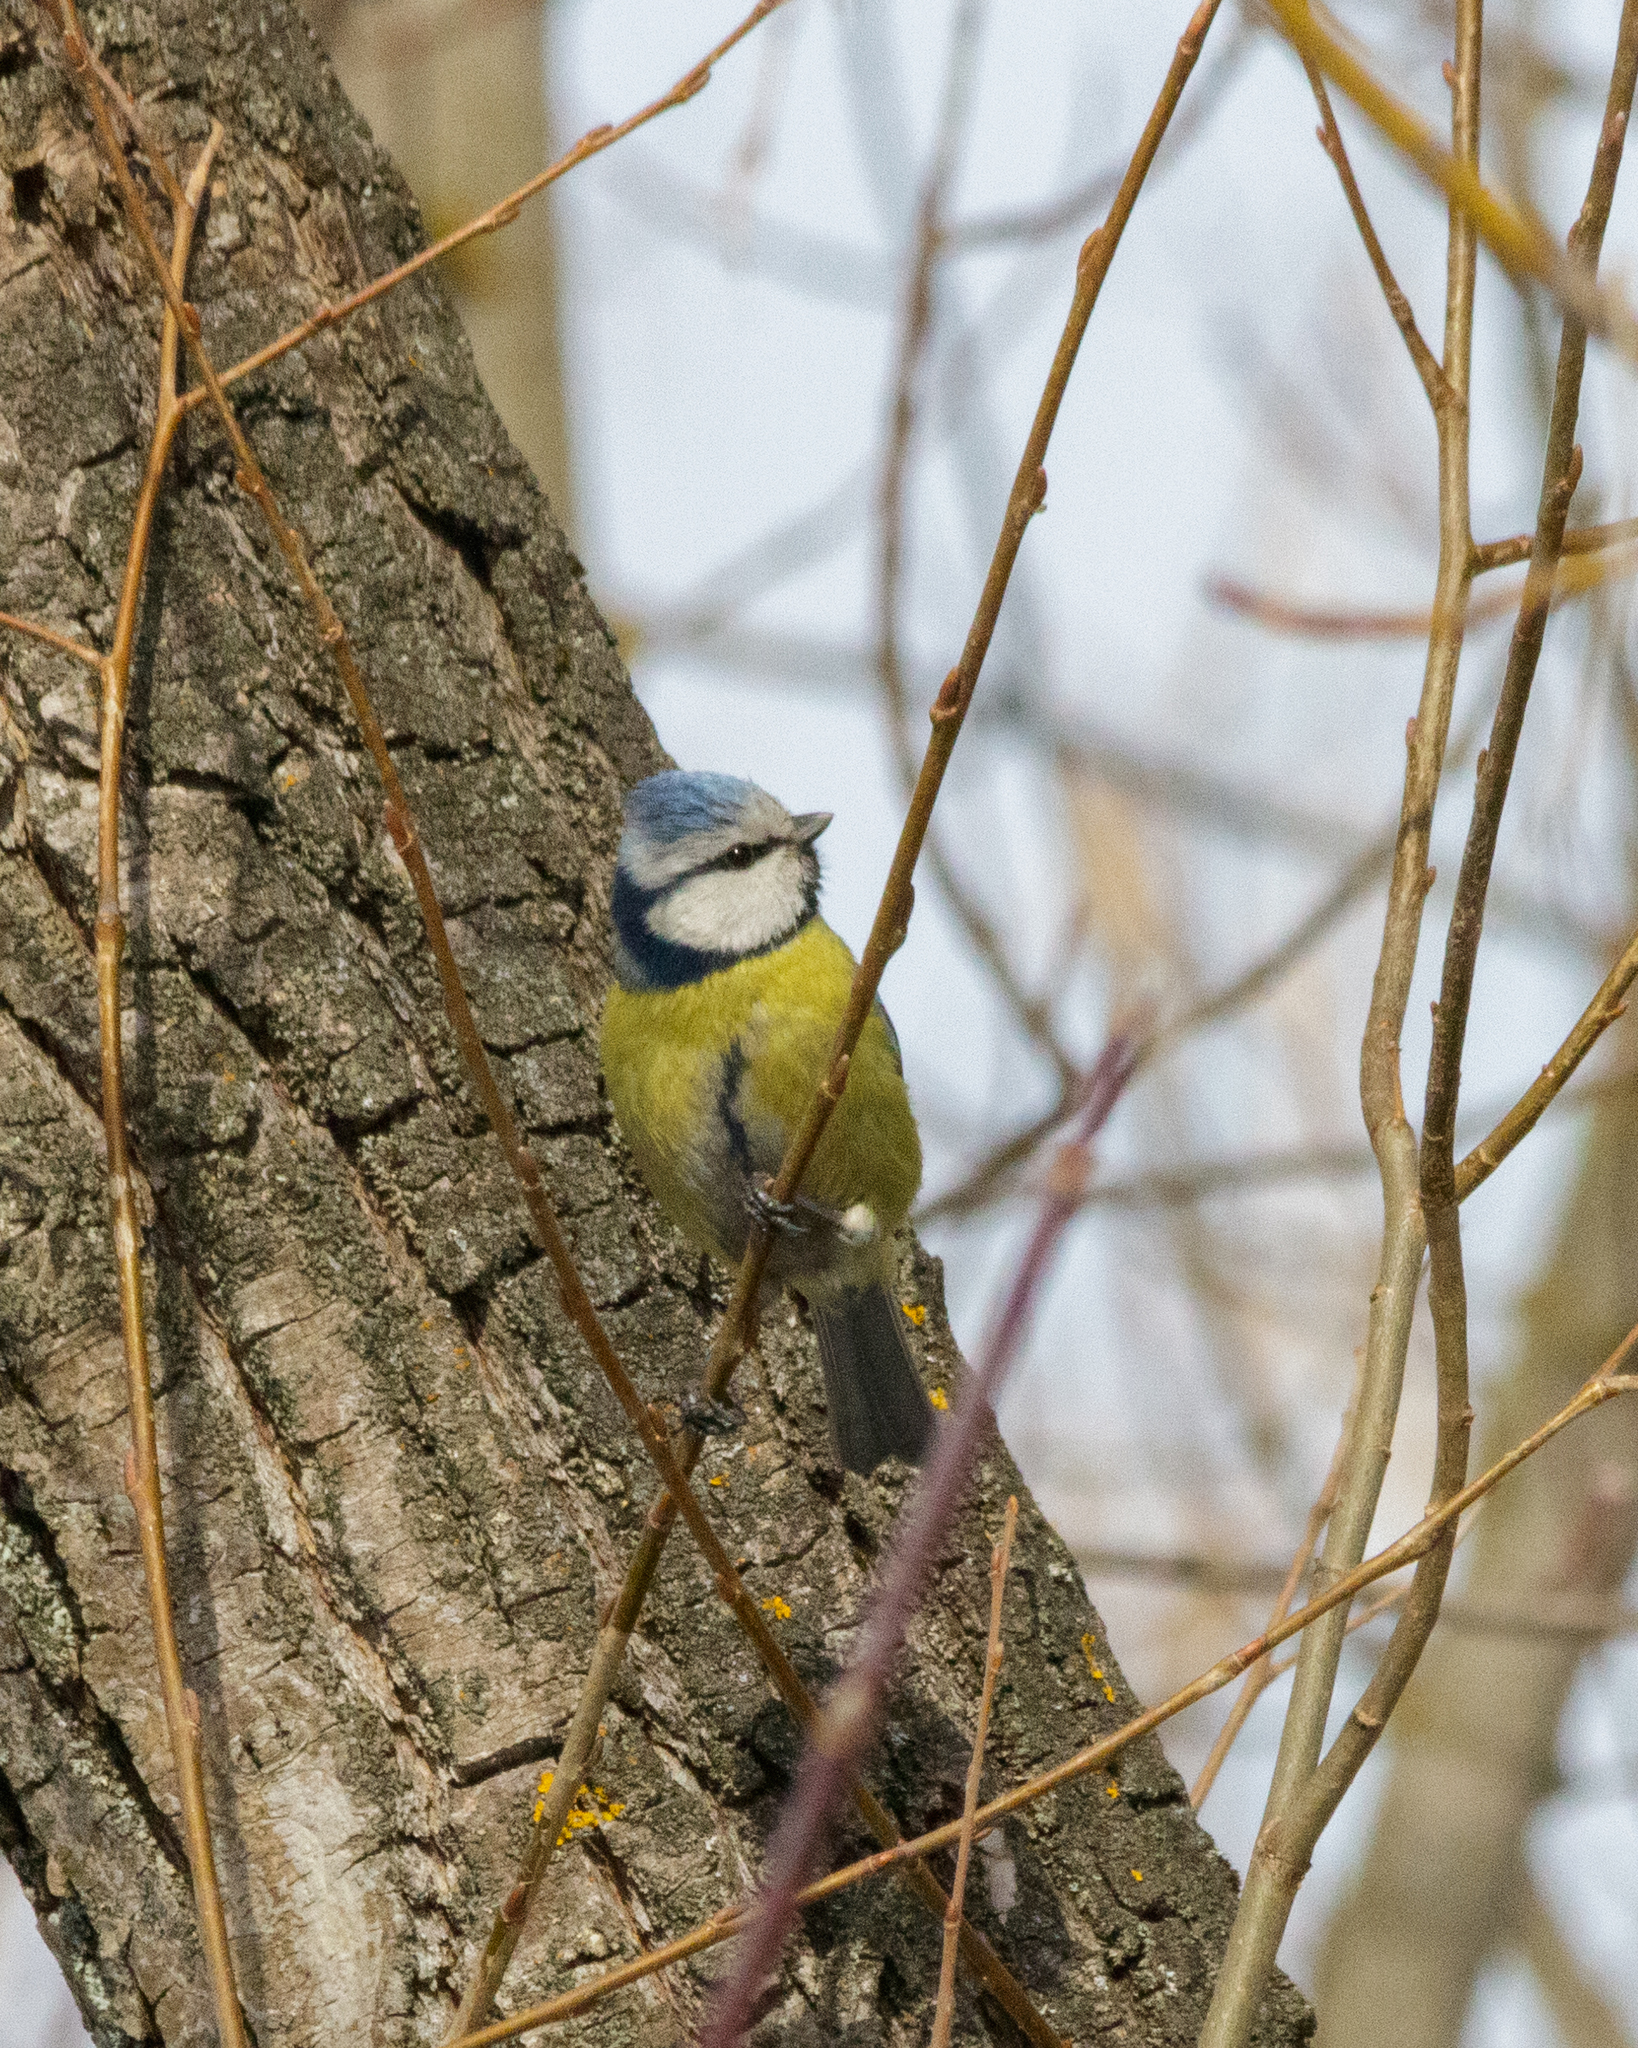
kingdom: Animalia
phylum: Chordata
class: Aves
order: Passeriformes
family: Paridae
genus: Cyanistes
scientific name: Cyanistes caeruleus
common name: Eurasian blue tit
